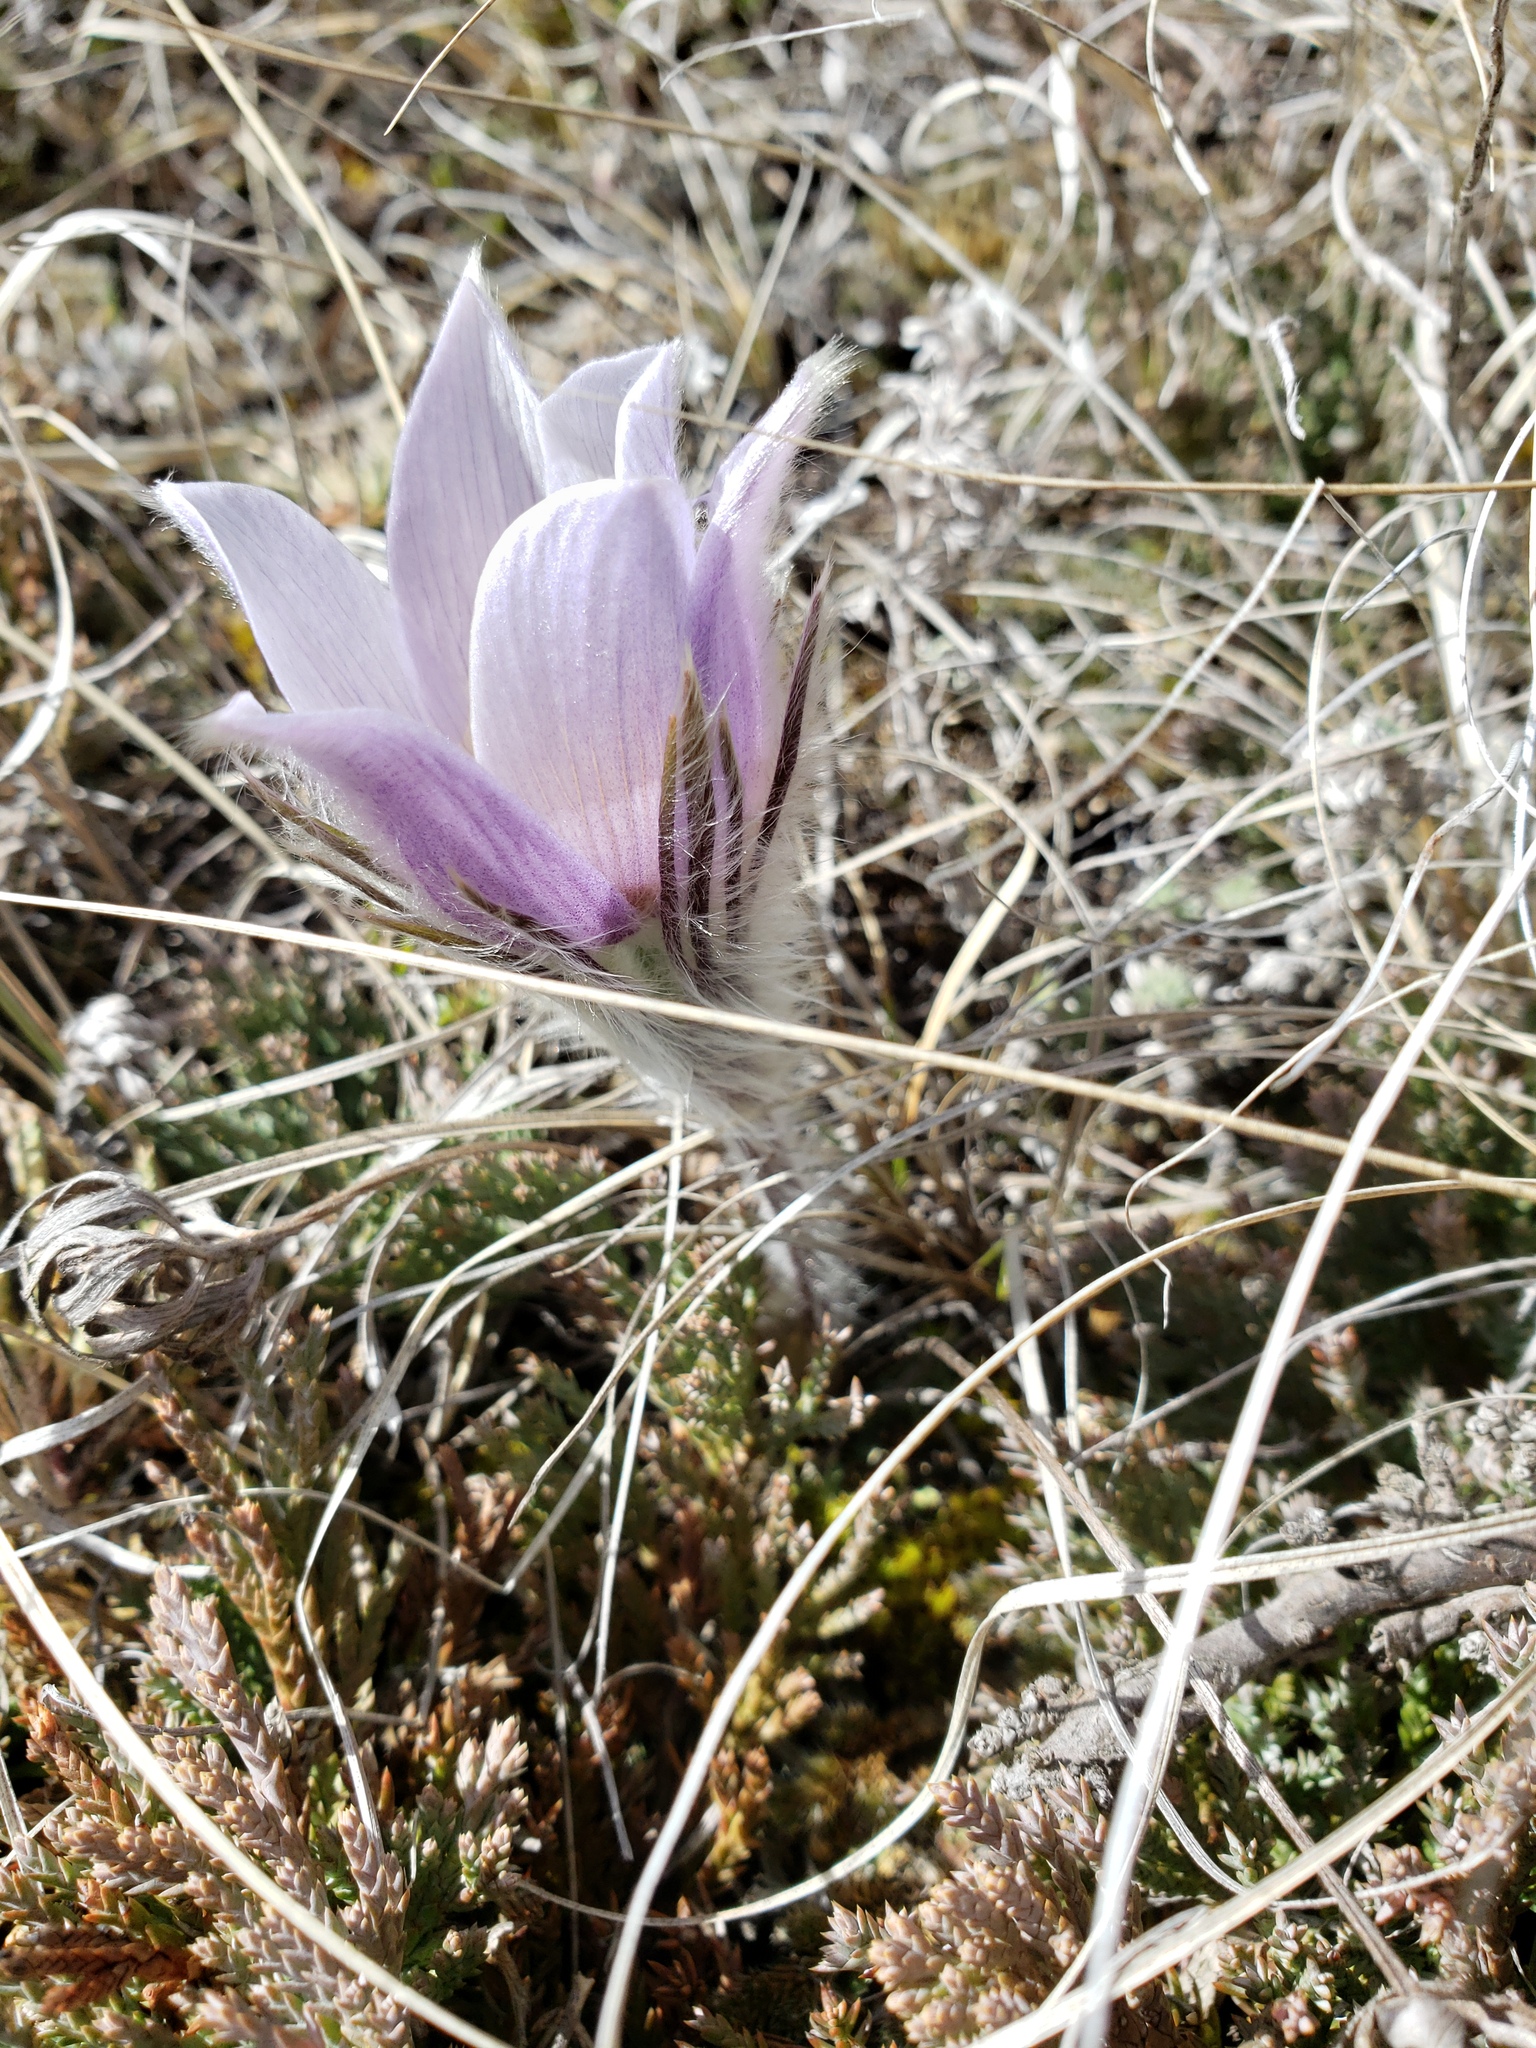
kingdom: Plantae
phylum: Tracheophyta
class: Magnoliopsida
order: Ranunculales
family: Ranunculaceae
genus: Pulsatilla
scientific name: Pulsatilla nuttalliana
